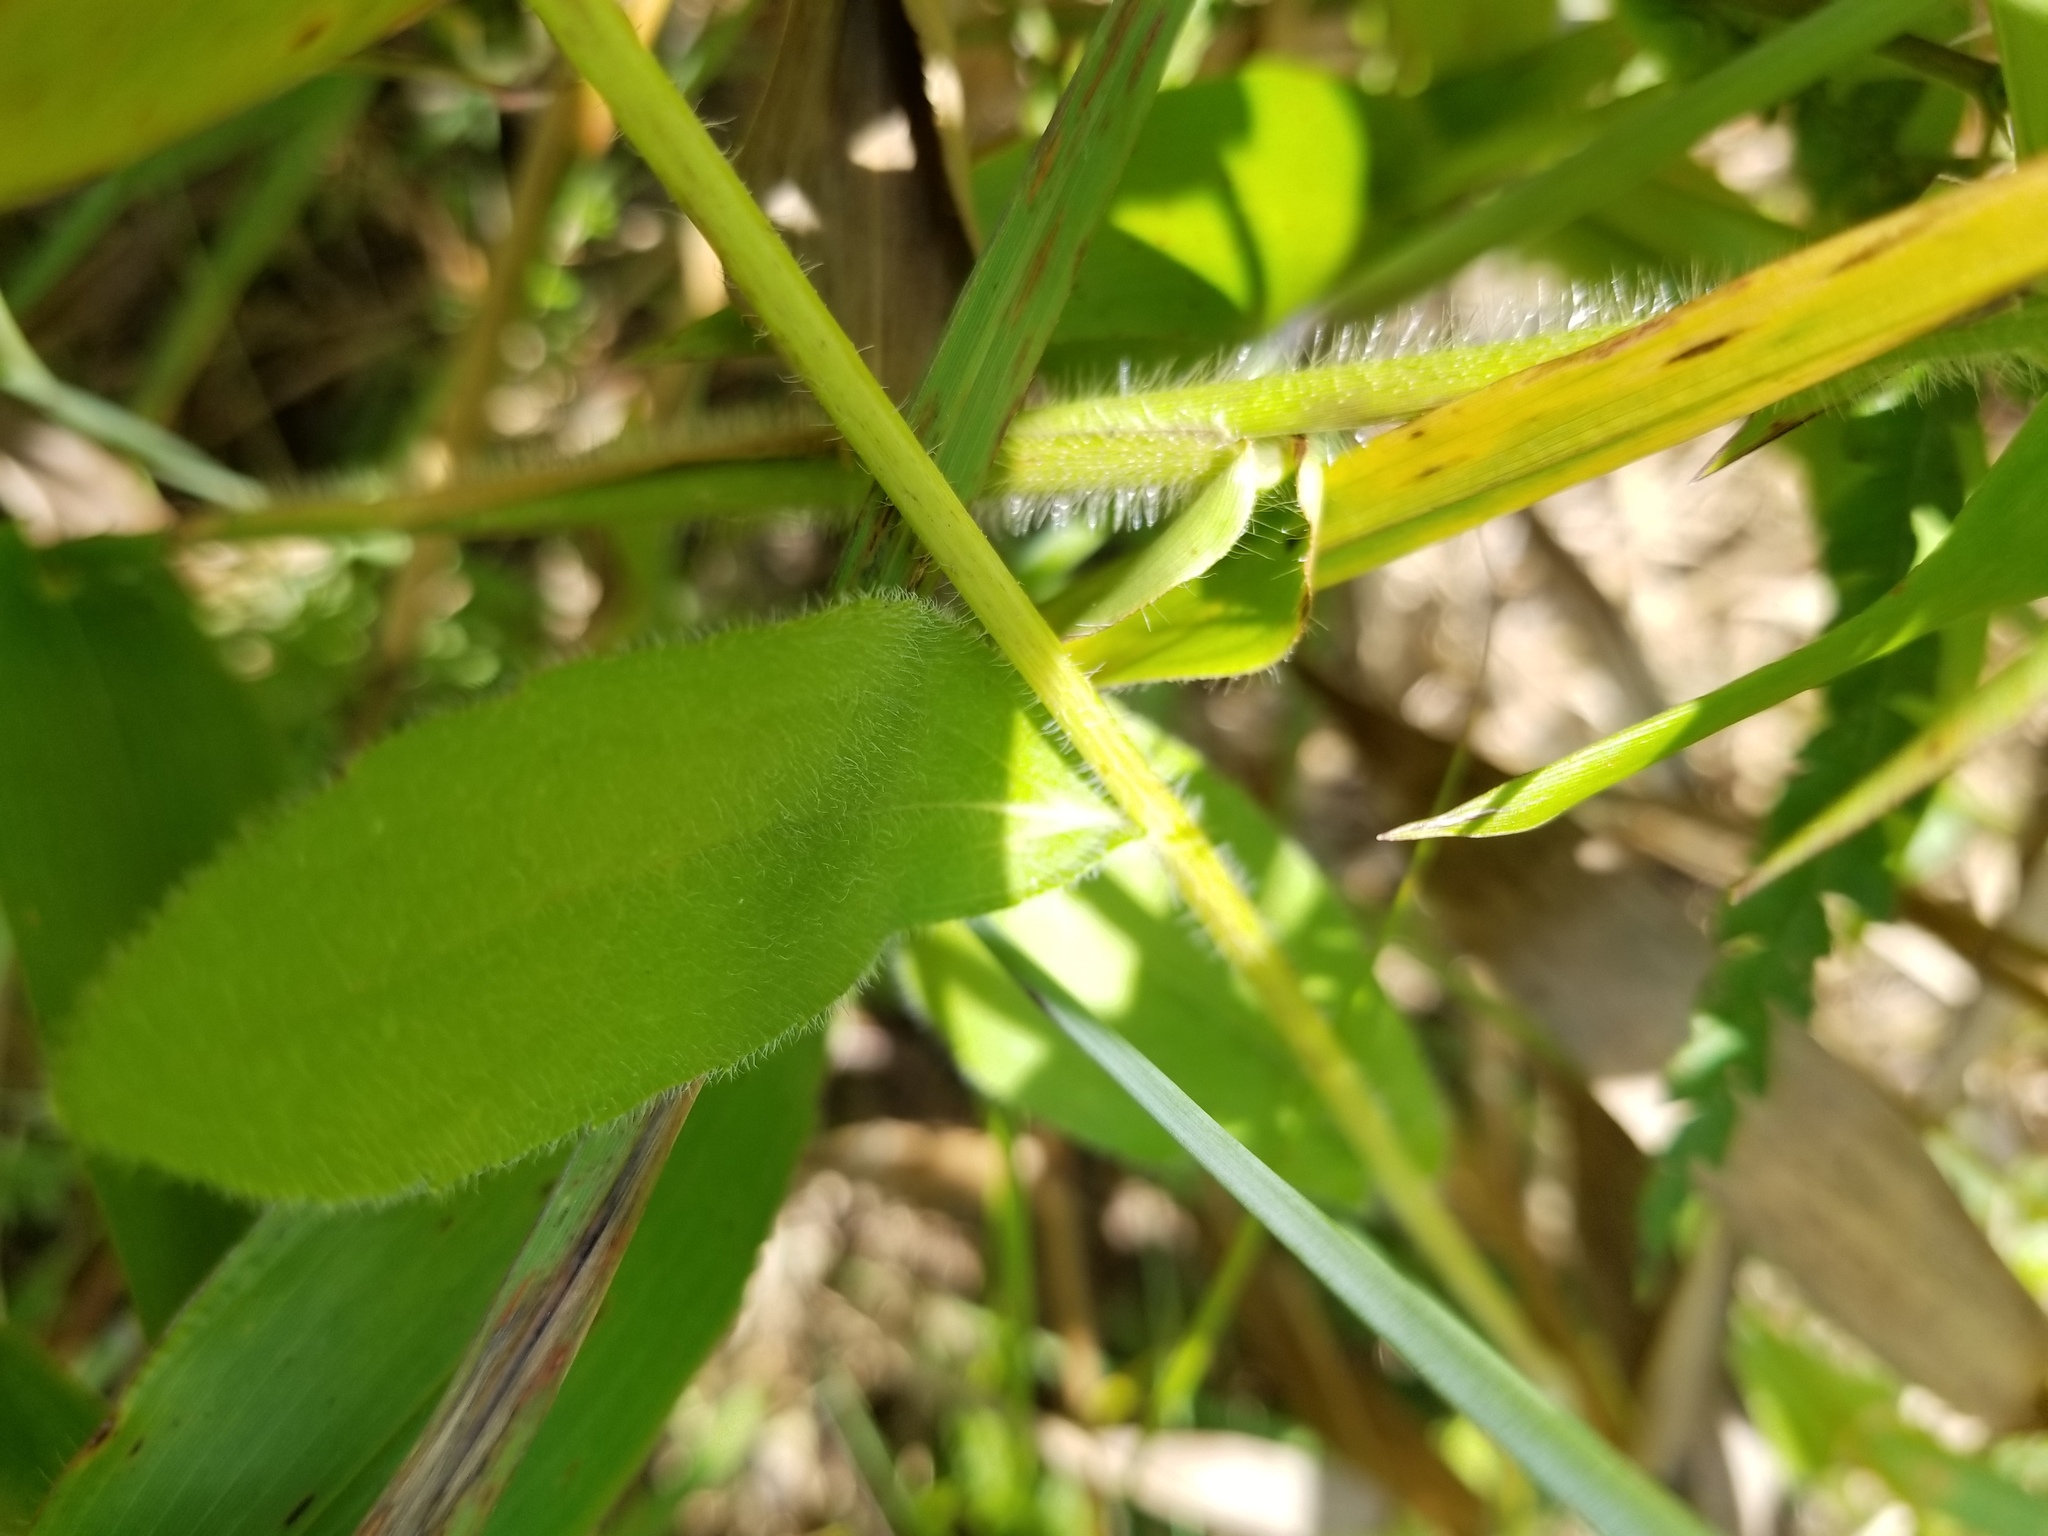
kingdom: Plantae
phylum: Tracheophyta
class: Magnoliopsida
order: Asterales
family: Asteraceae
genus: Rudbeckia
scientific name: Rudbeckia hirta
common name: Black-eyed-susan
